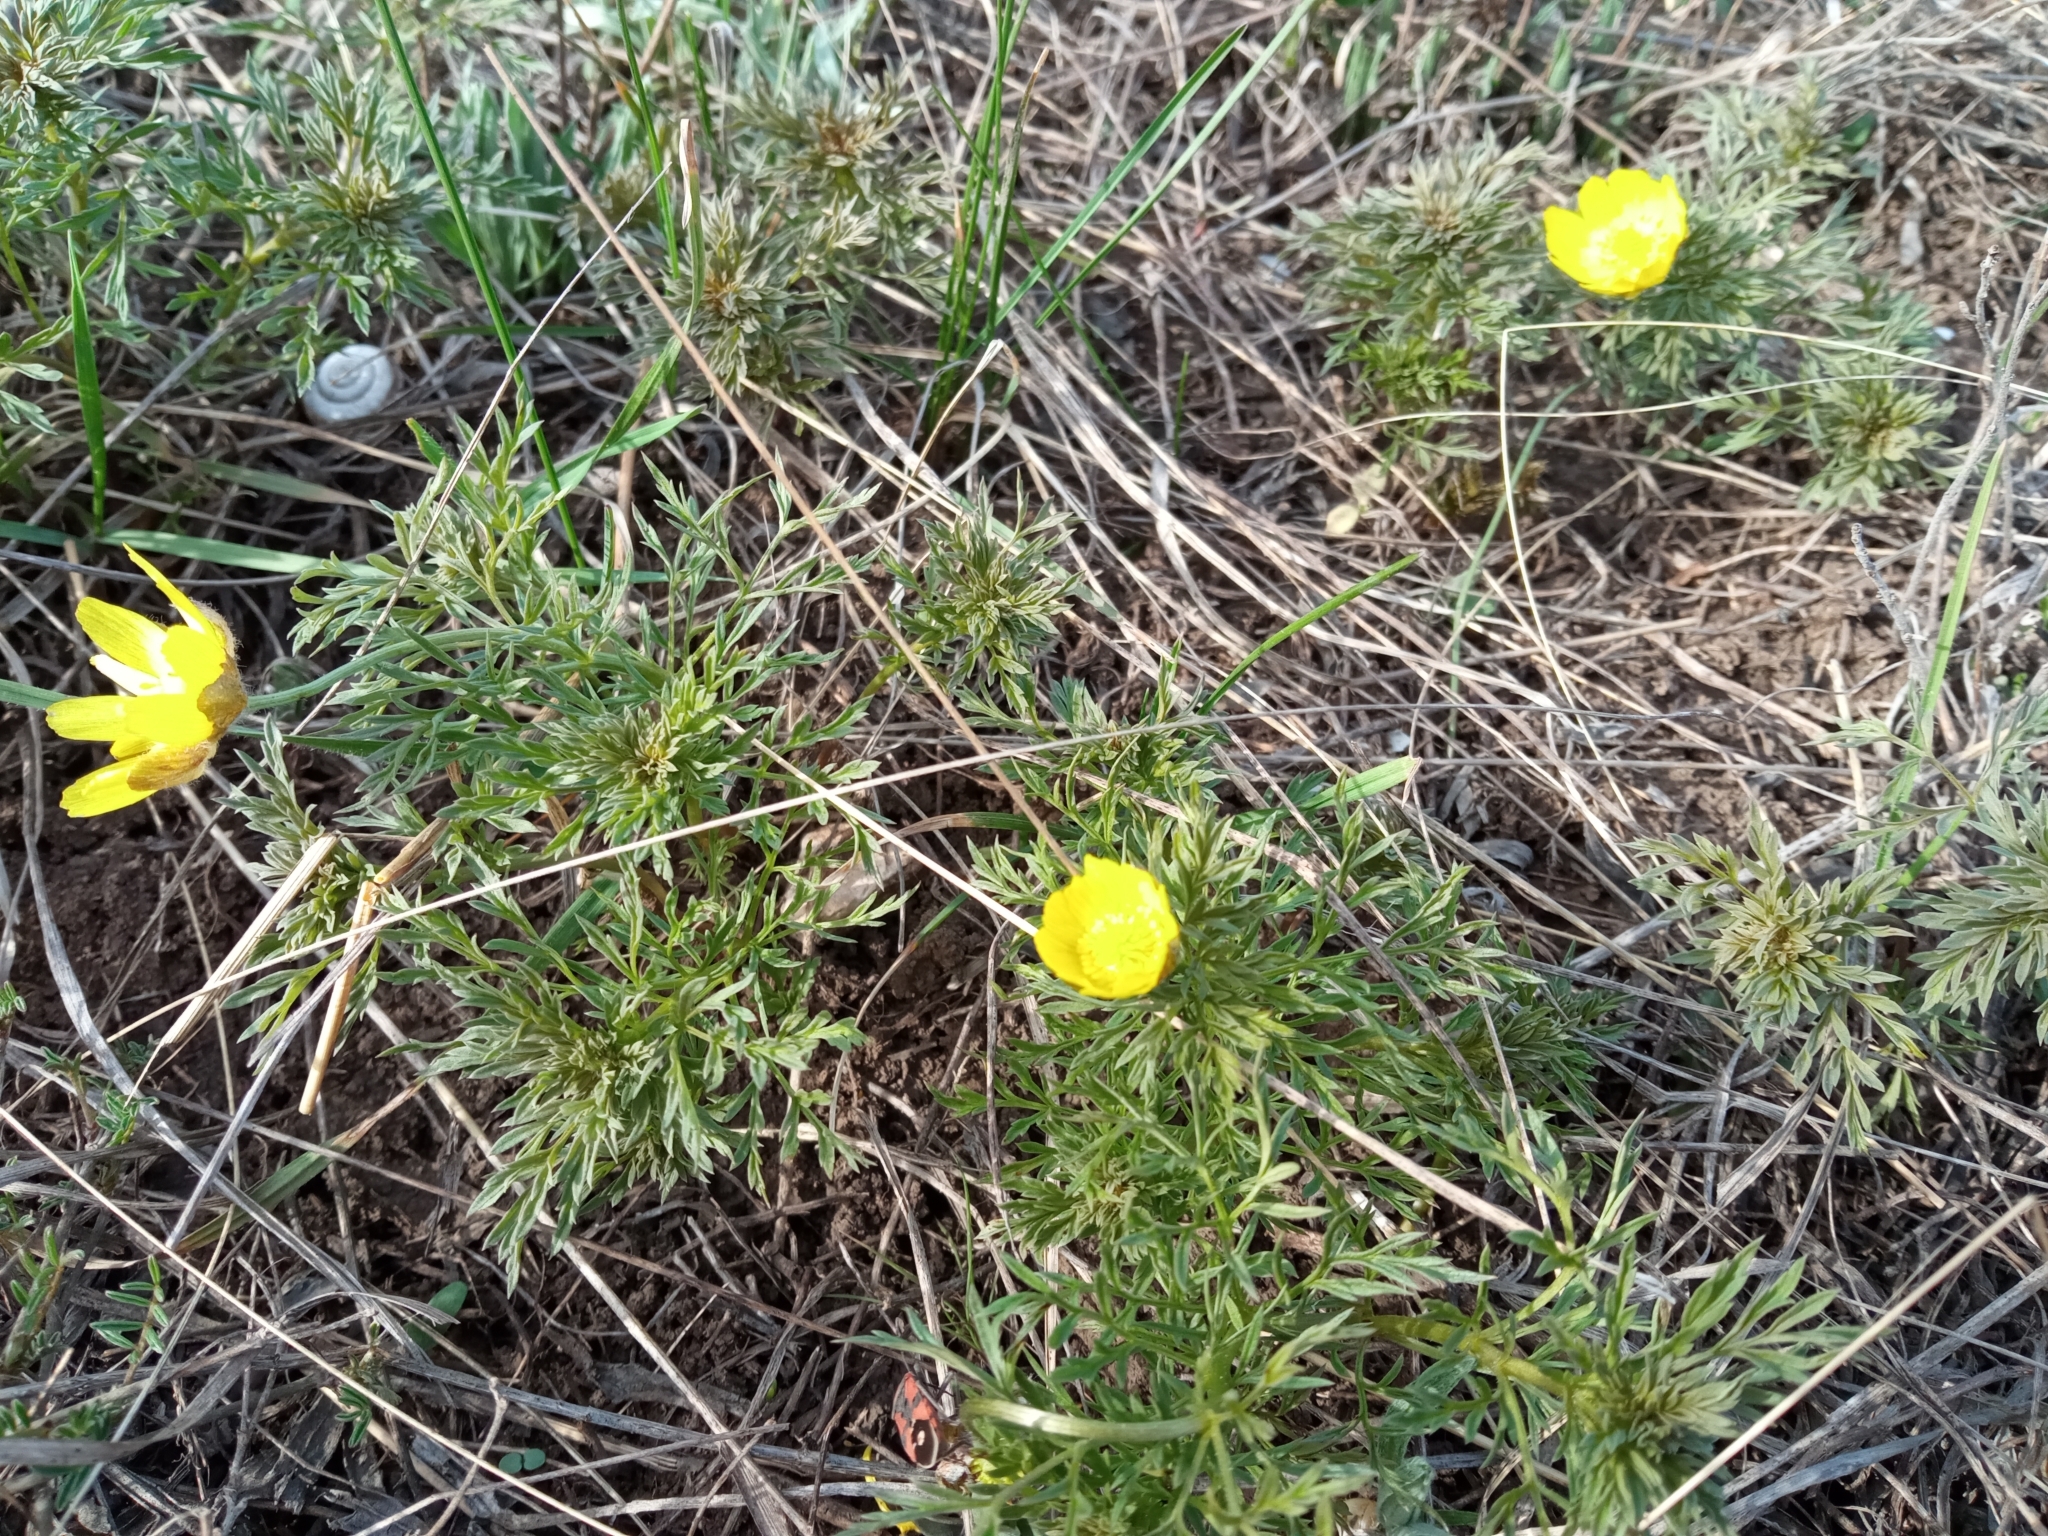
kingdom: Plantae
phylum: Tracheophyta
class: Magnoliopsida
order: Ranunculales
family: Ranunculaceae
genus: Adonis
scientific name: Adonis volgensis
